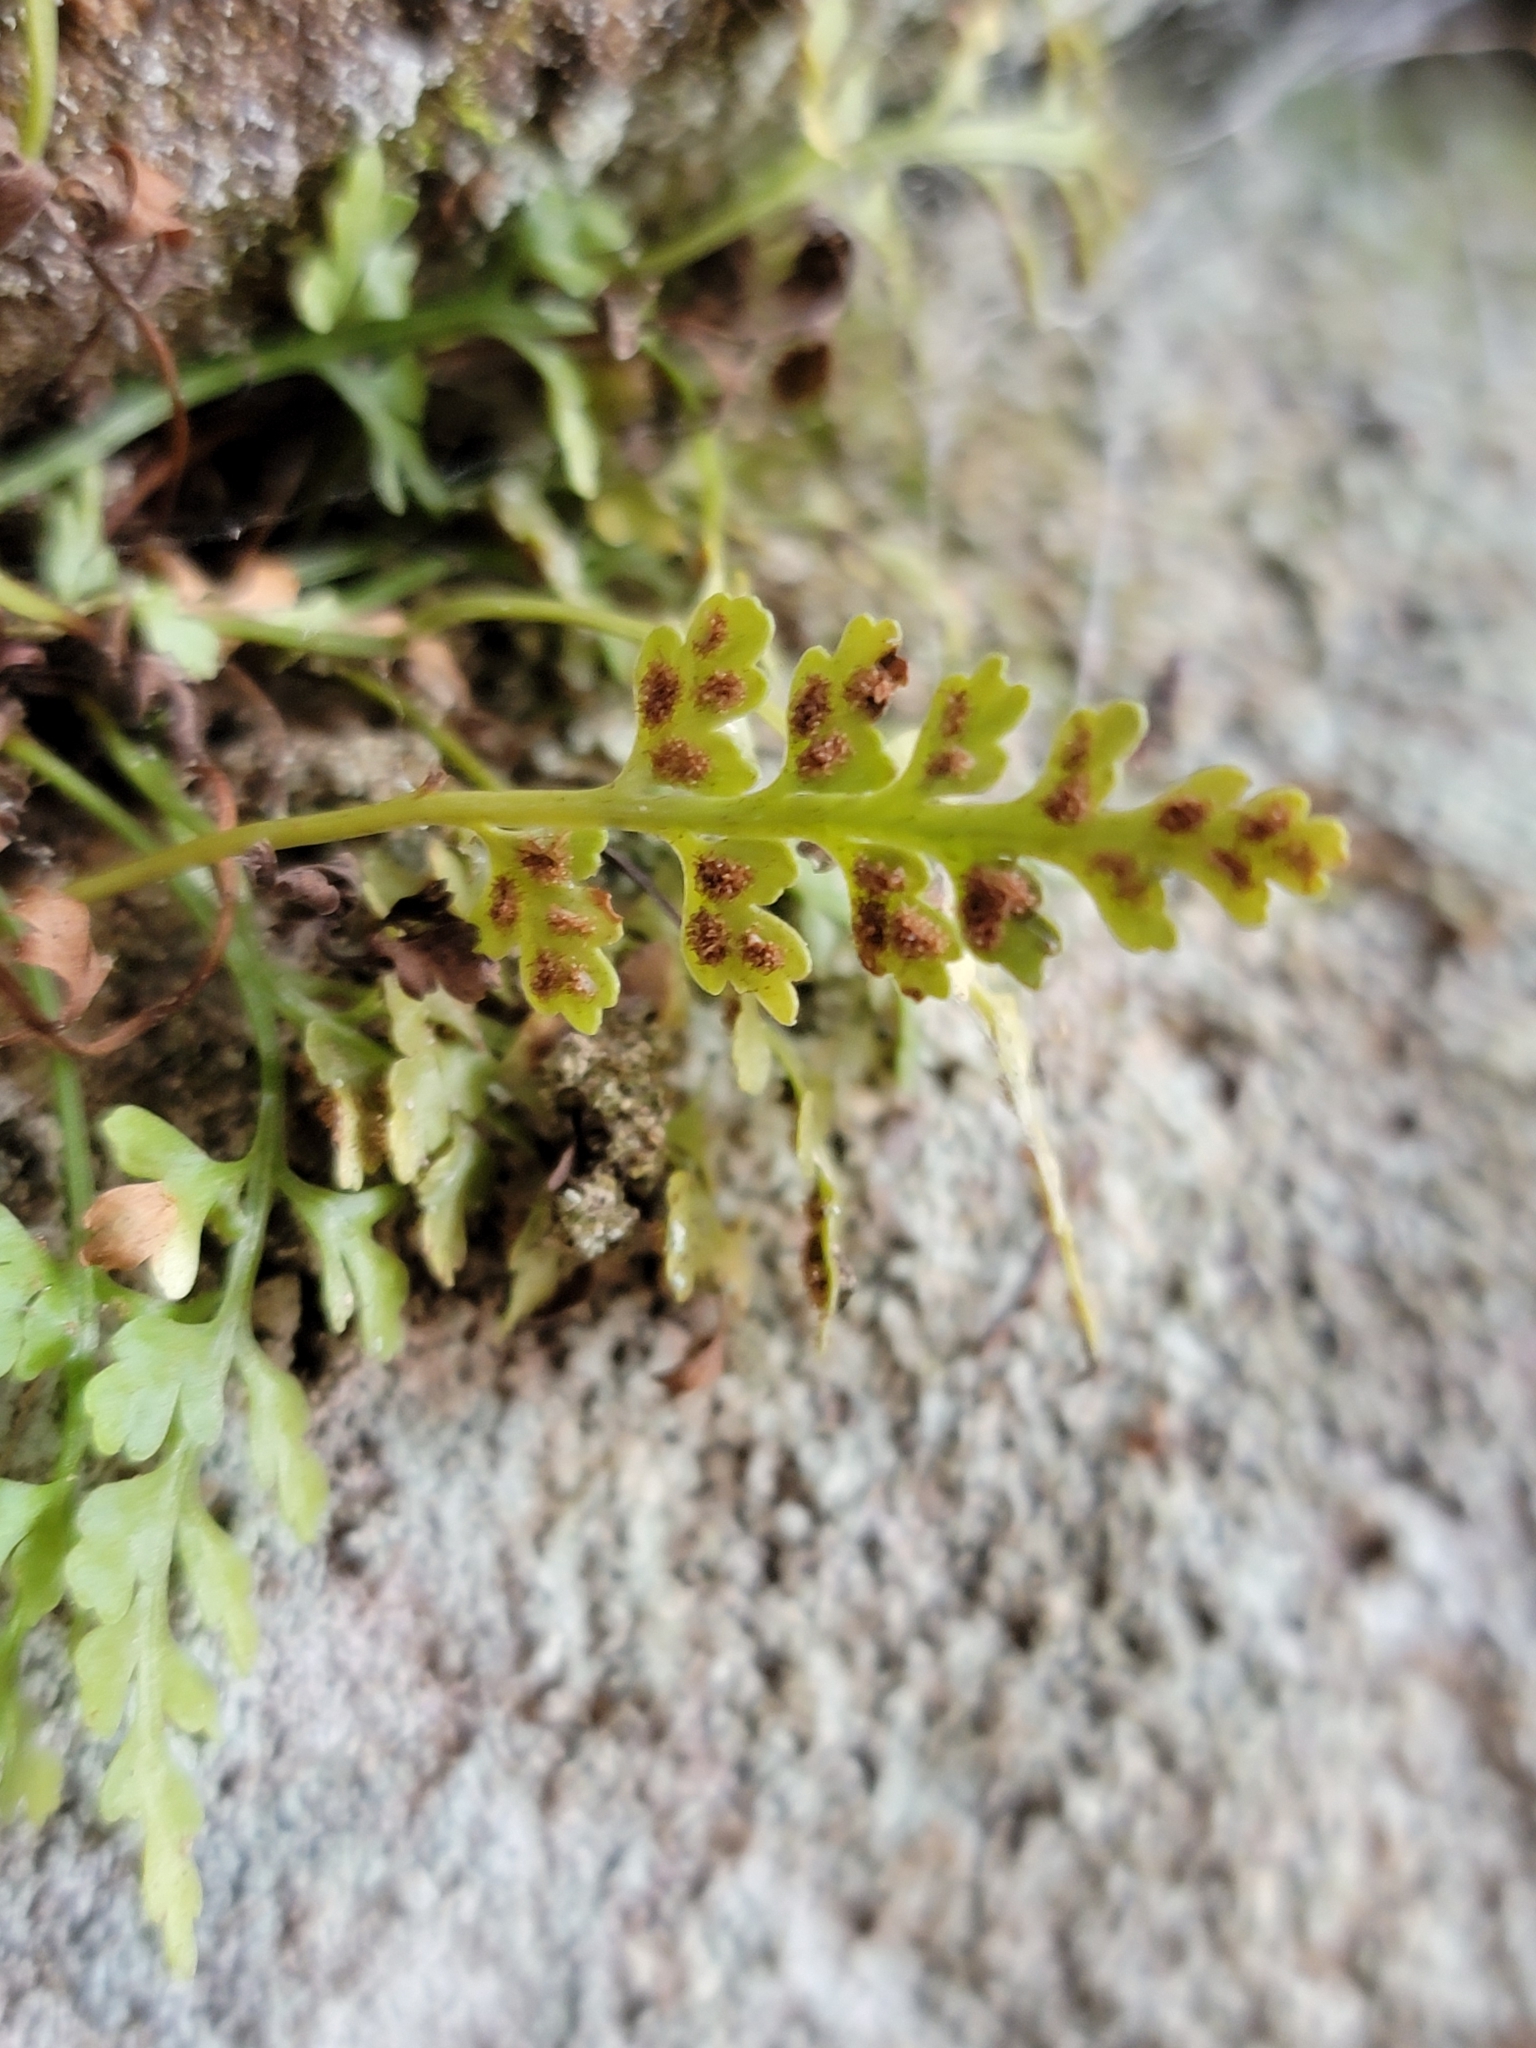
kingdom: Plantae
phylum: Tracheophyta
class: Polypodiopsida
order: Polypodiales
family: Aspleniaceae
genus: Asplenium
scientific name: Asplenium montanum
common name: Mountain spleenwort
